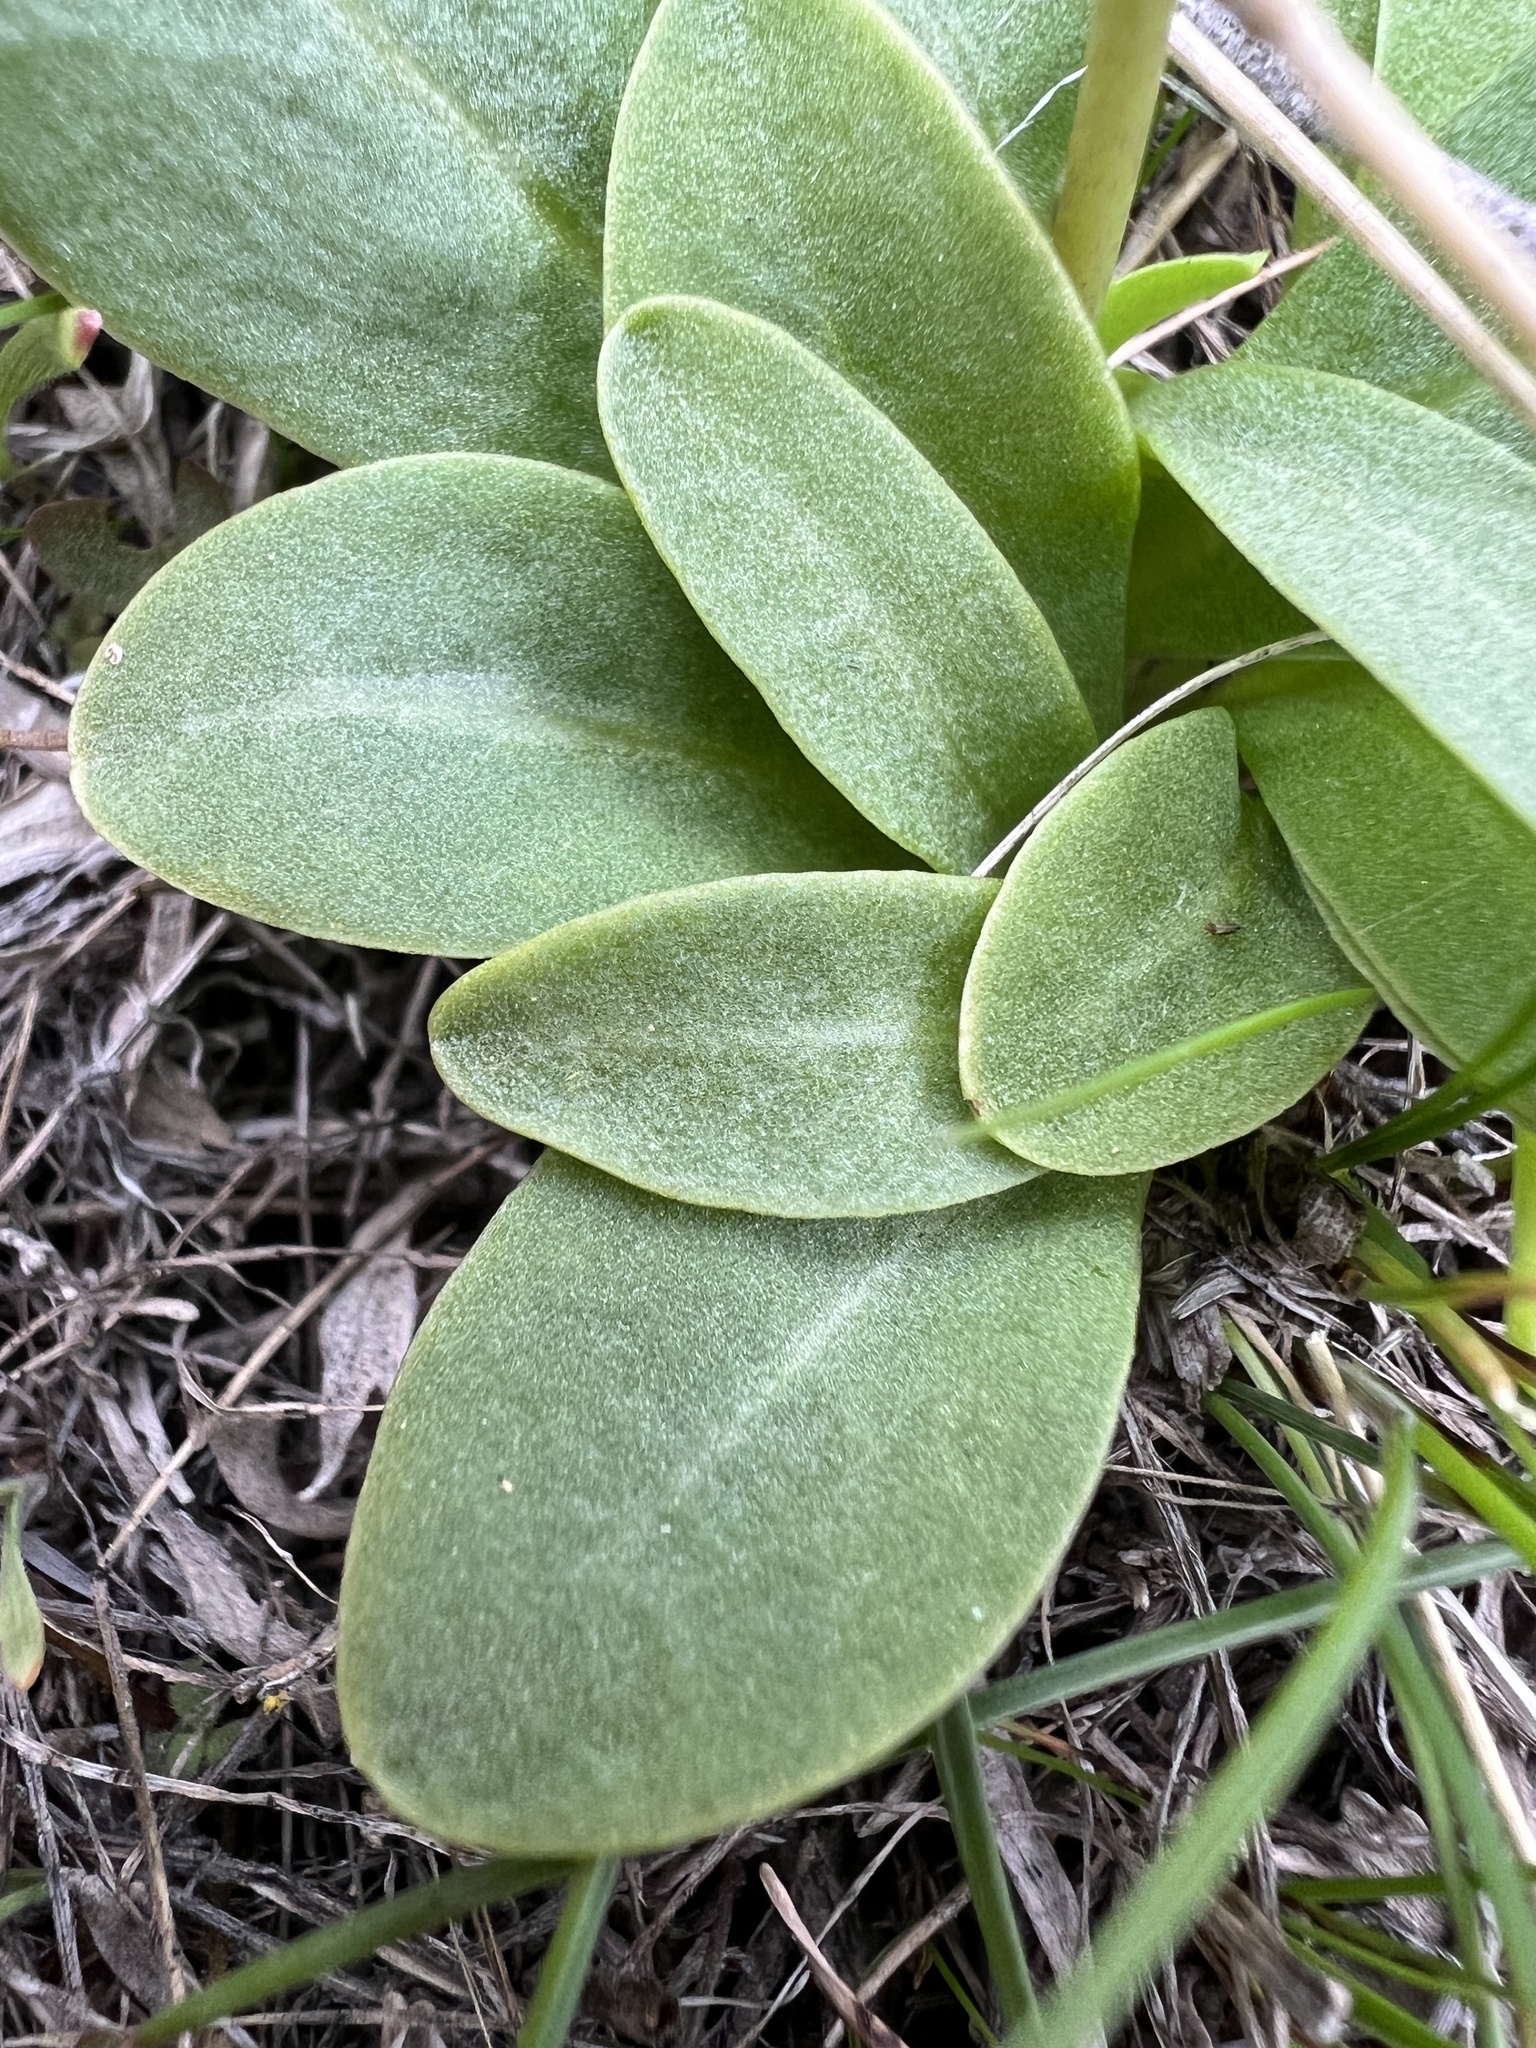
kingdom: Plantae
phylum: Tracheophyta
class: Magnoliopsida
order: Ericales
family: Primulaceae
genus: Dodecatheon
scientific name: Dodecatheon conjugens
